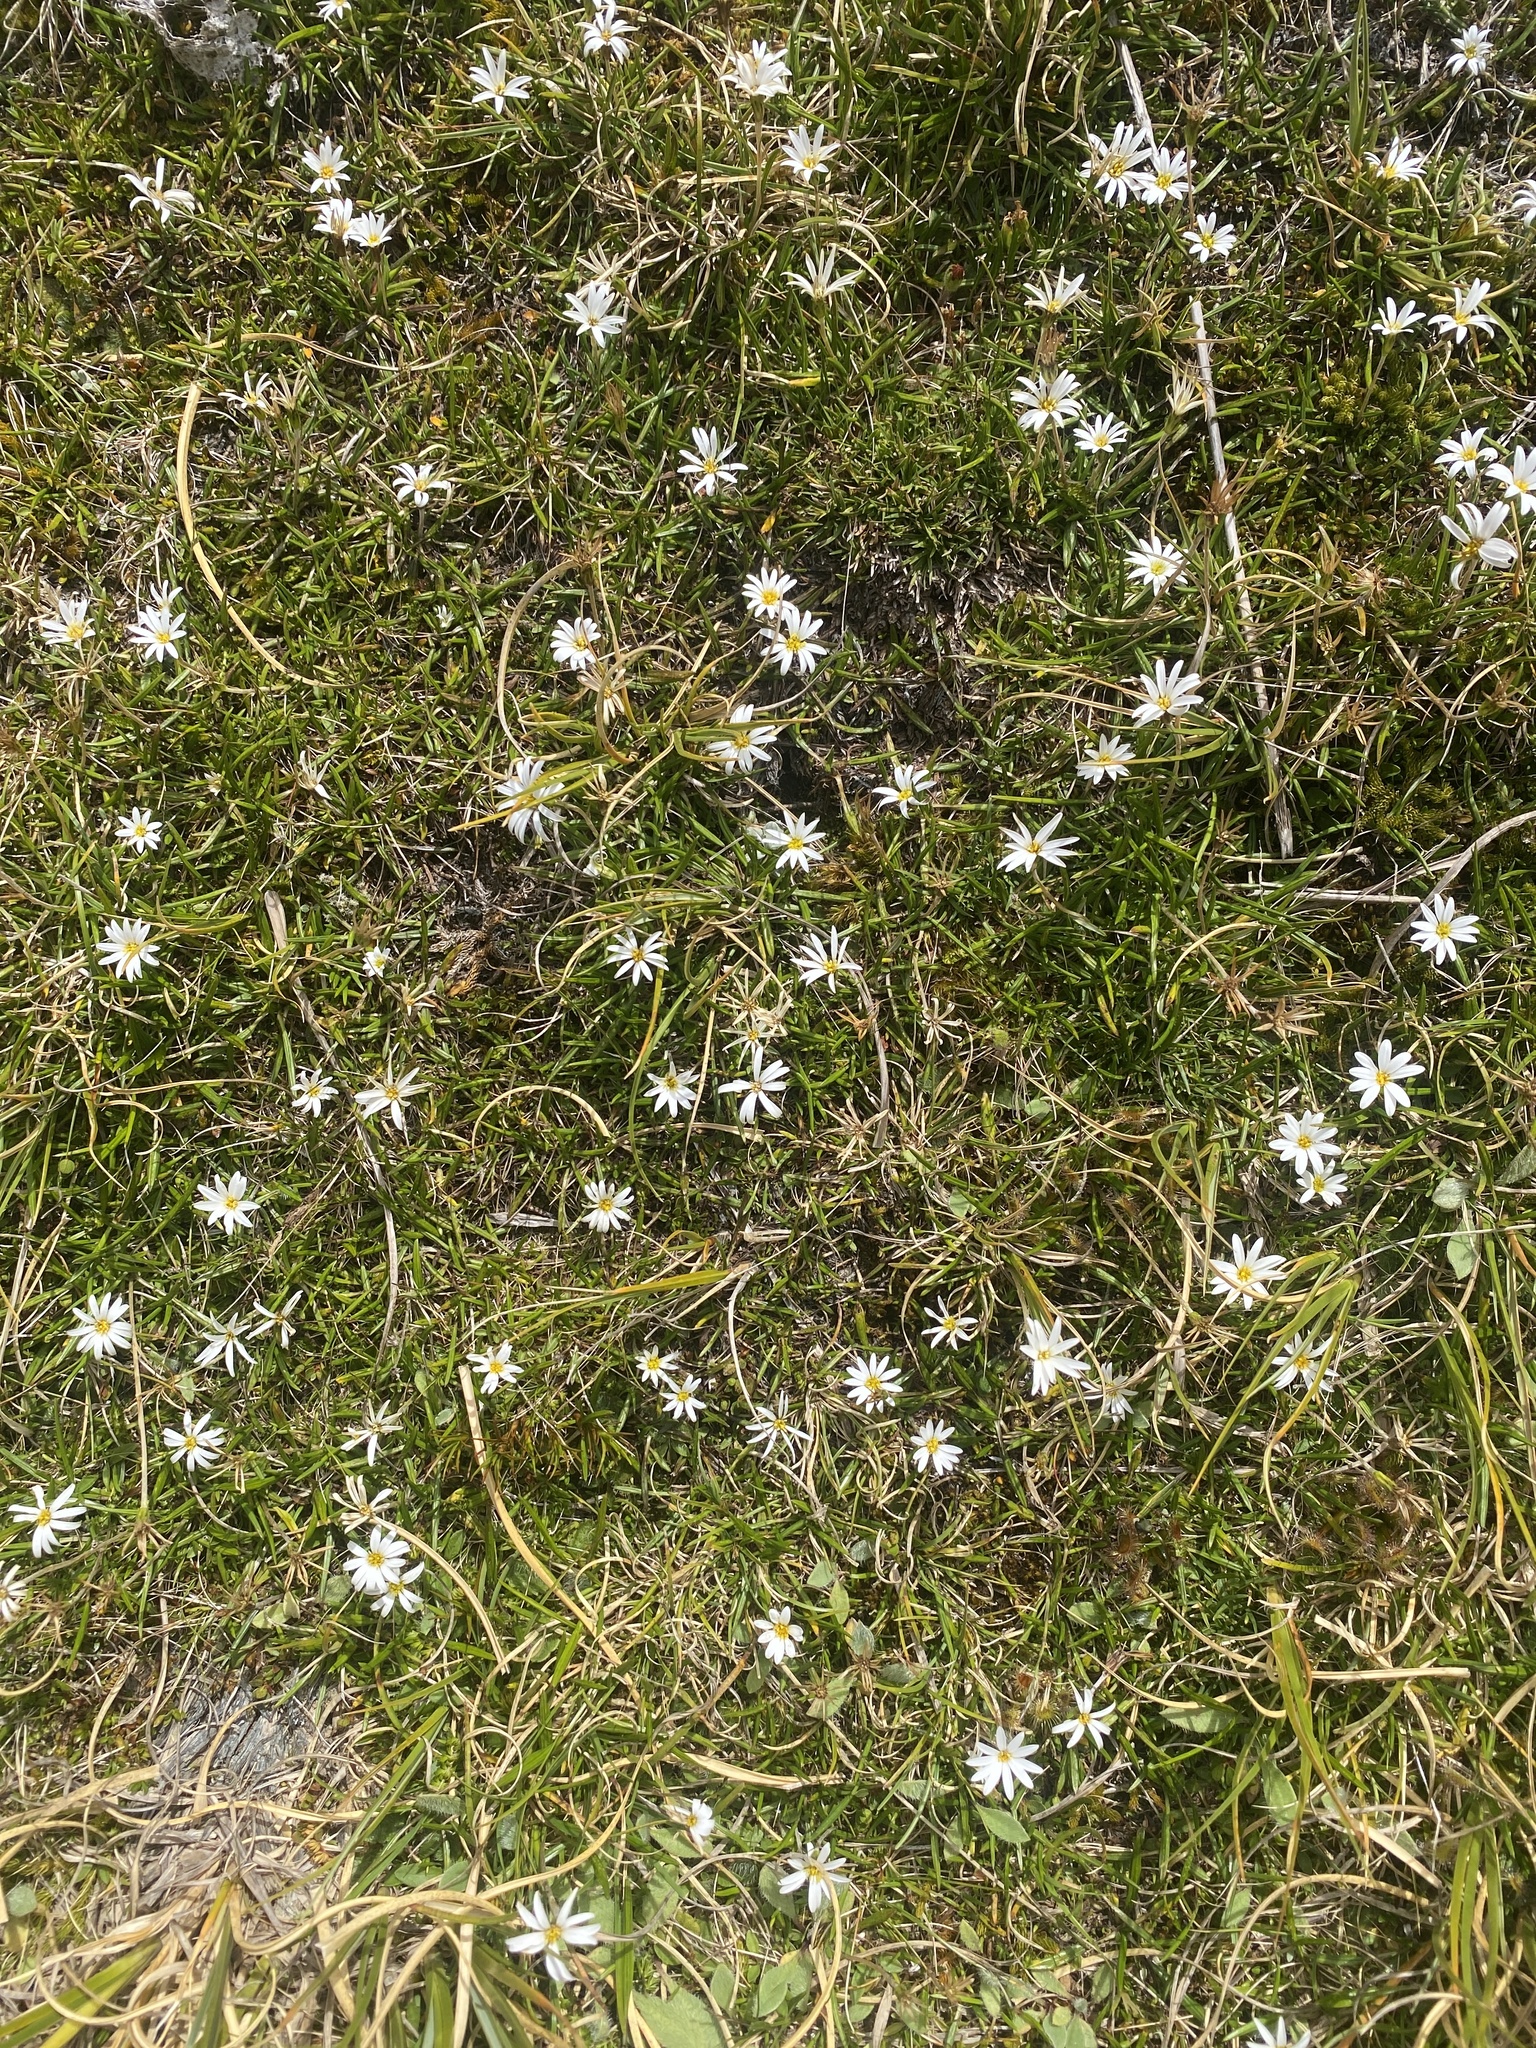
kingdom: Plantae
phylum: Tracheophyta
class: Magnoliopsida
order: Asterales
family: Asteraceae
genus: Celmisia
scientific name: Celmisia alpina
